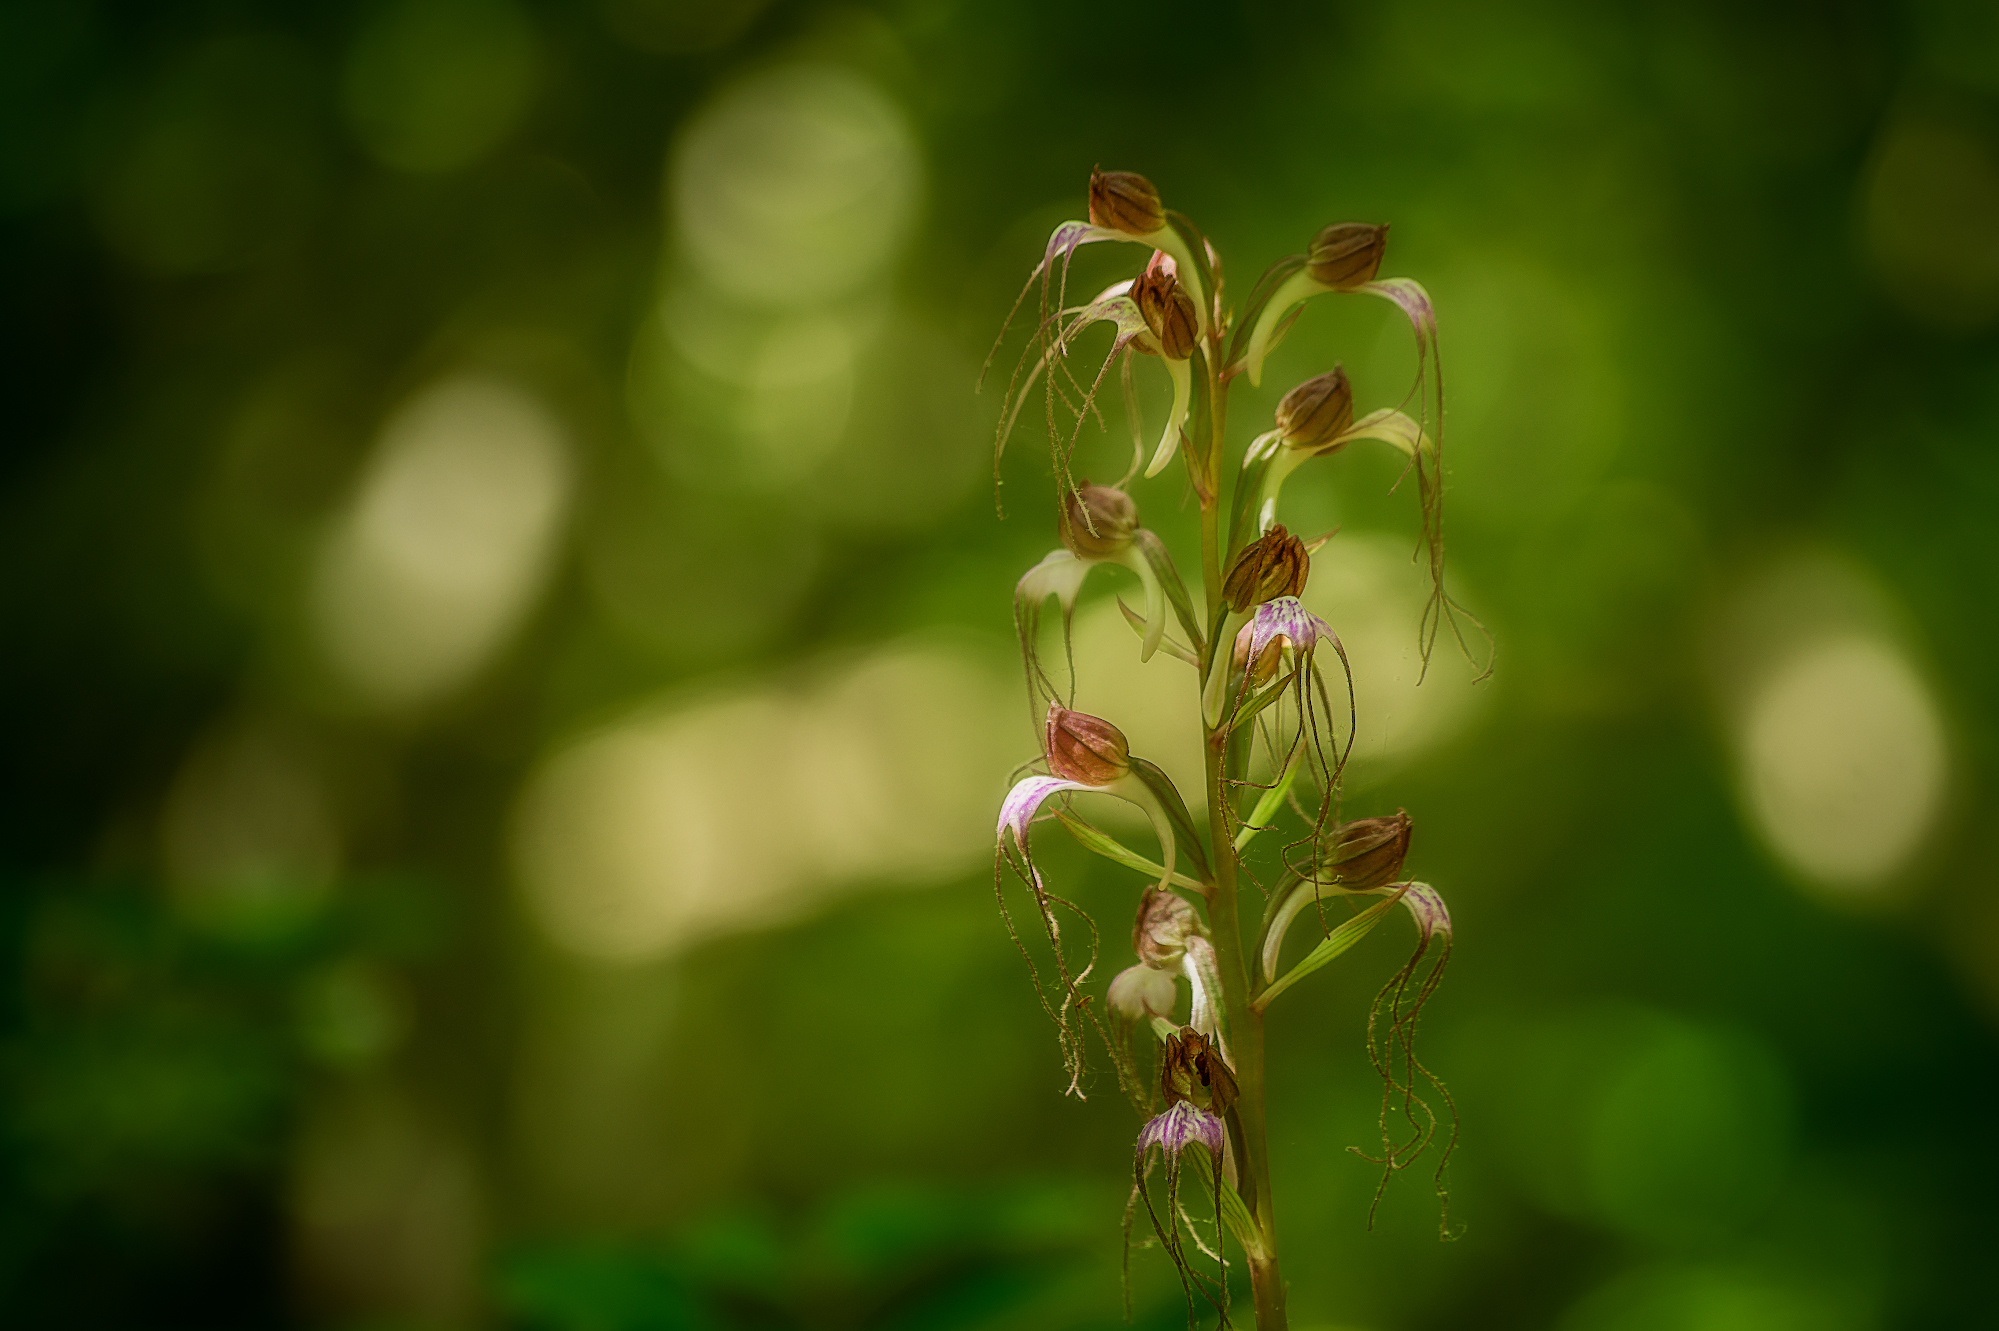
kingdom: Plantae
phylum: Tracheophyta
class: Liliopsida
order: Asparagales
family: Orchidaceae
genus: Himantoglossum
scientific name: Himantoglossum comperianum
